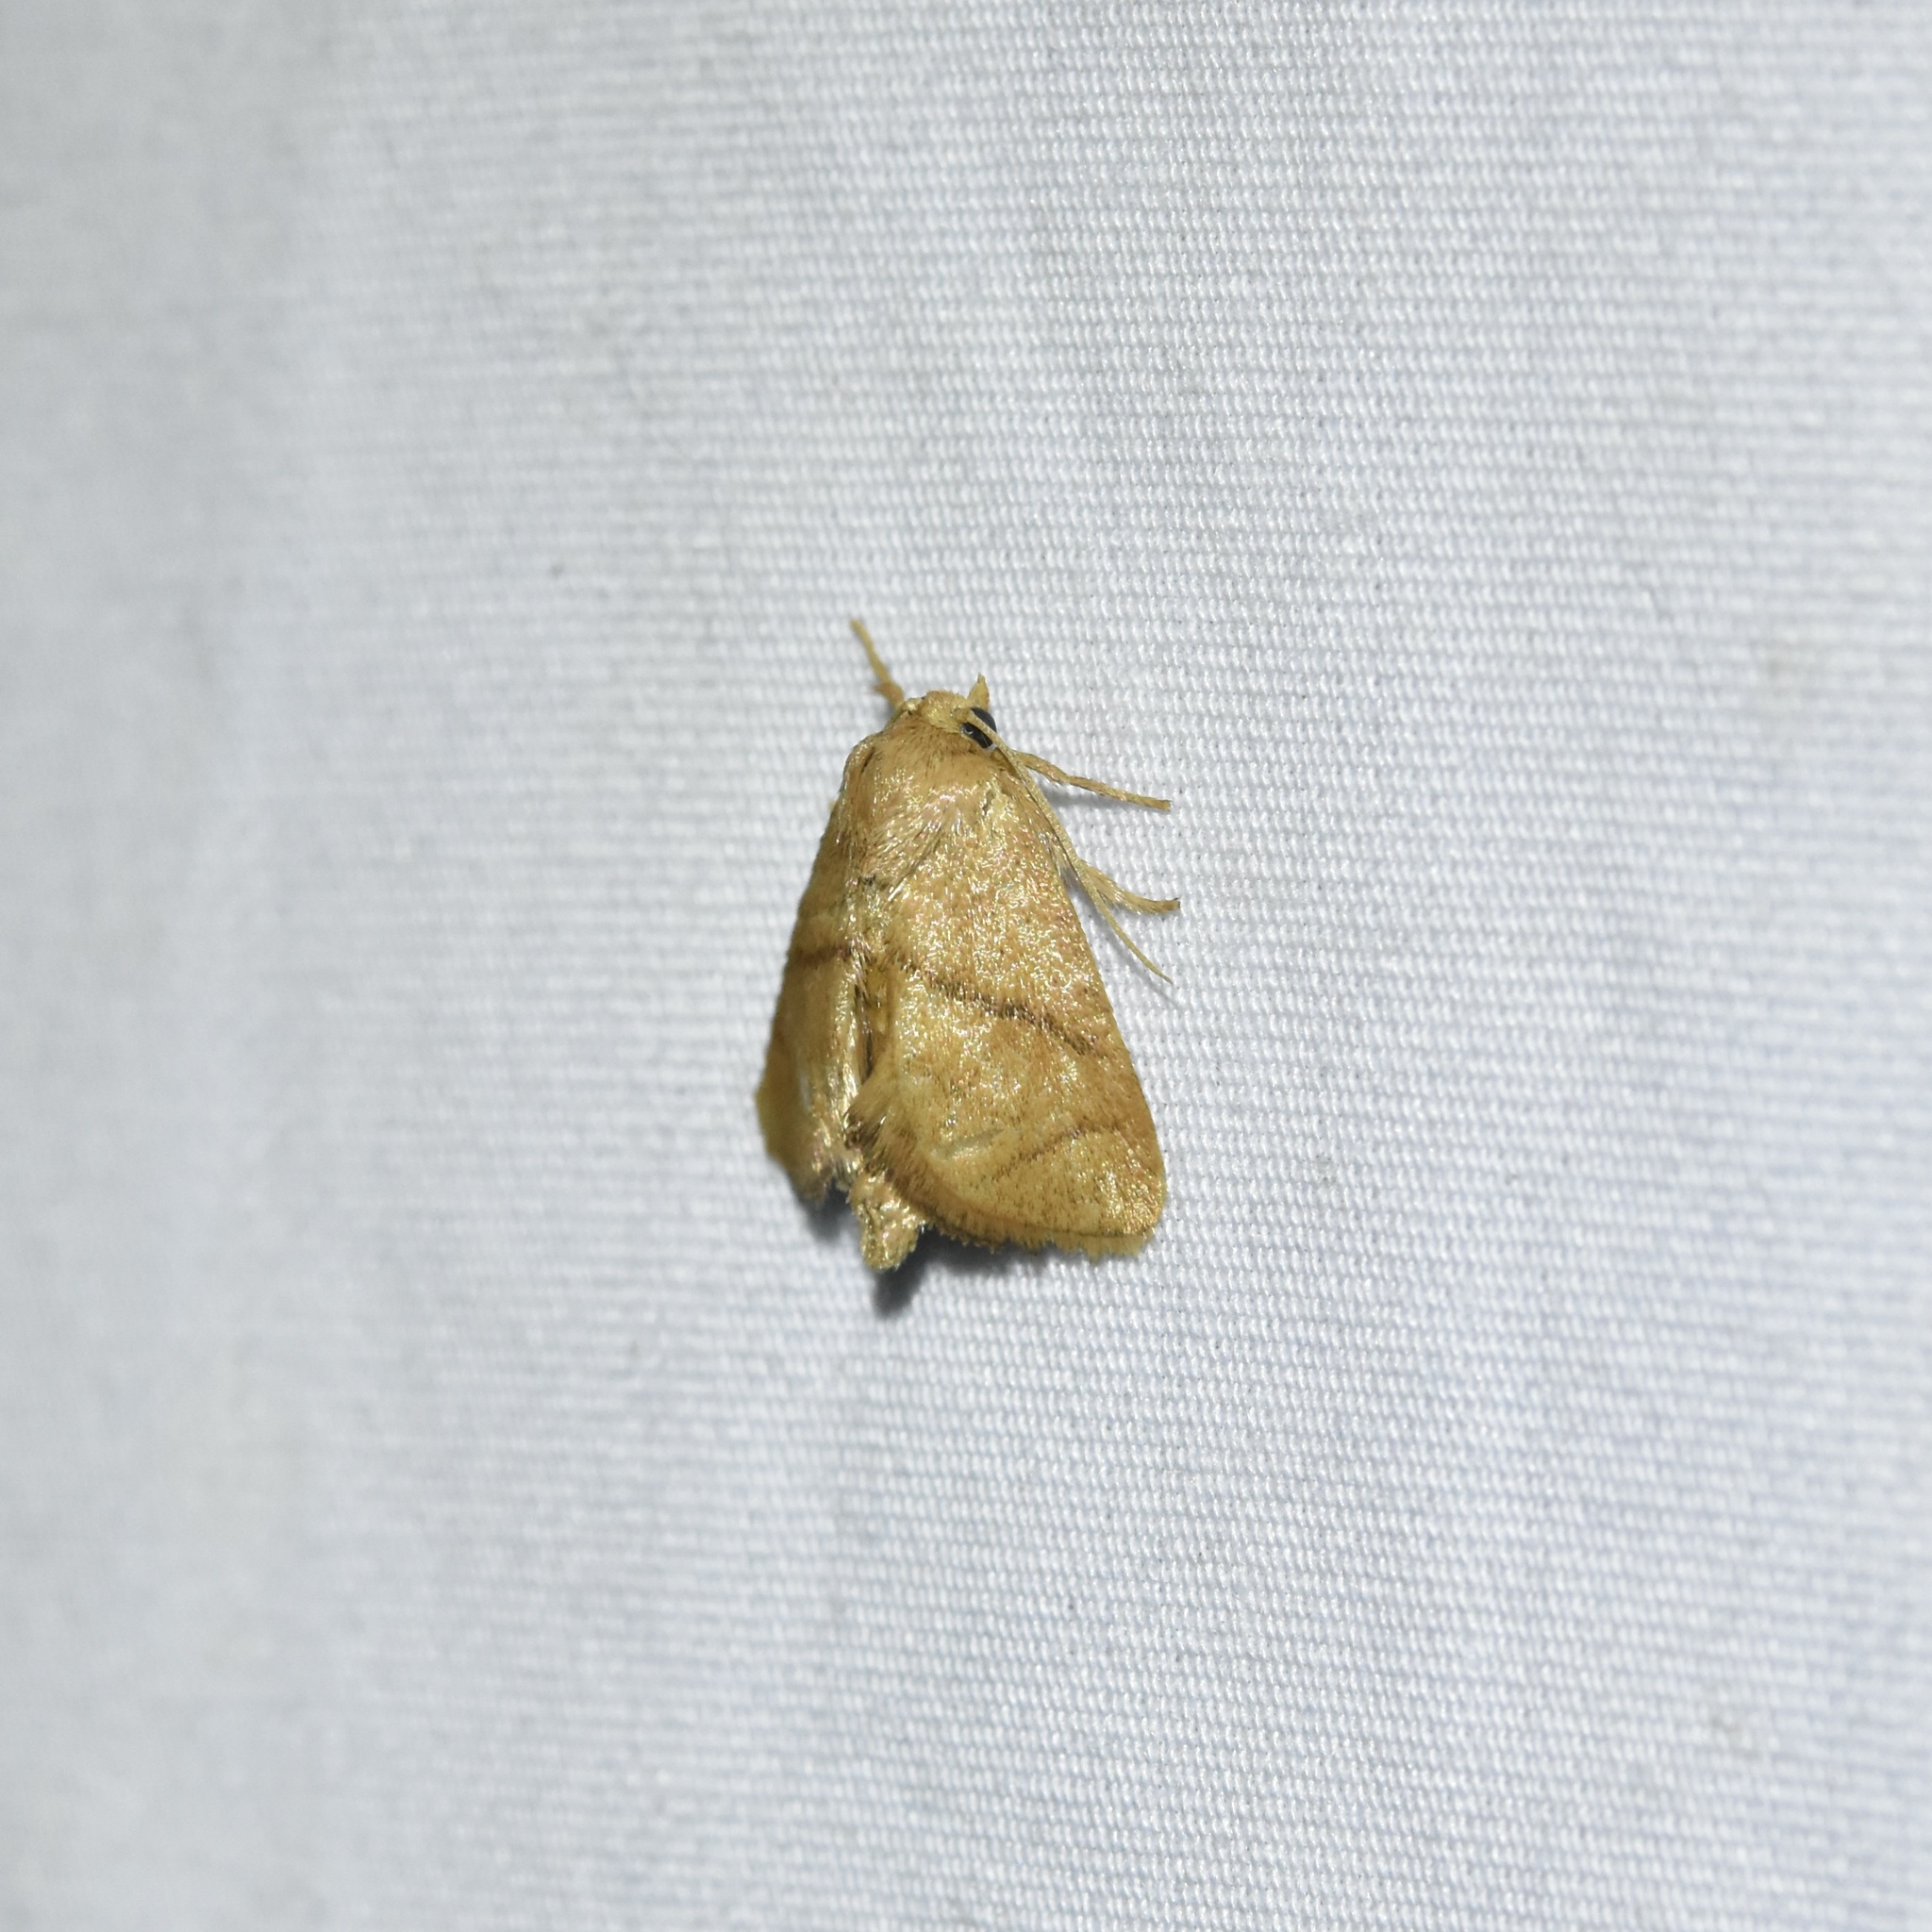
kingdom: Animalia
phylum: Arthropoda
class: Insecta
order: Lepidoptera
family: Limacodidae
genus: Apoda
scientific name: Apoda y-inversa
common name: Yellow-collared slug moth
